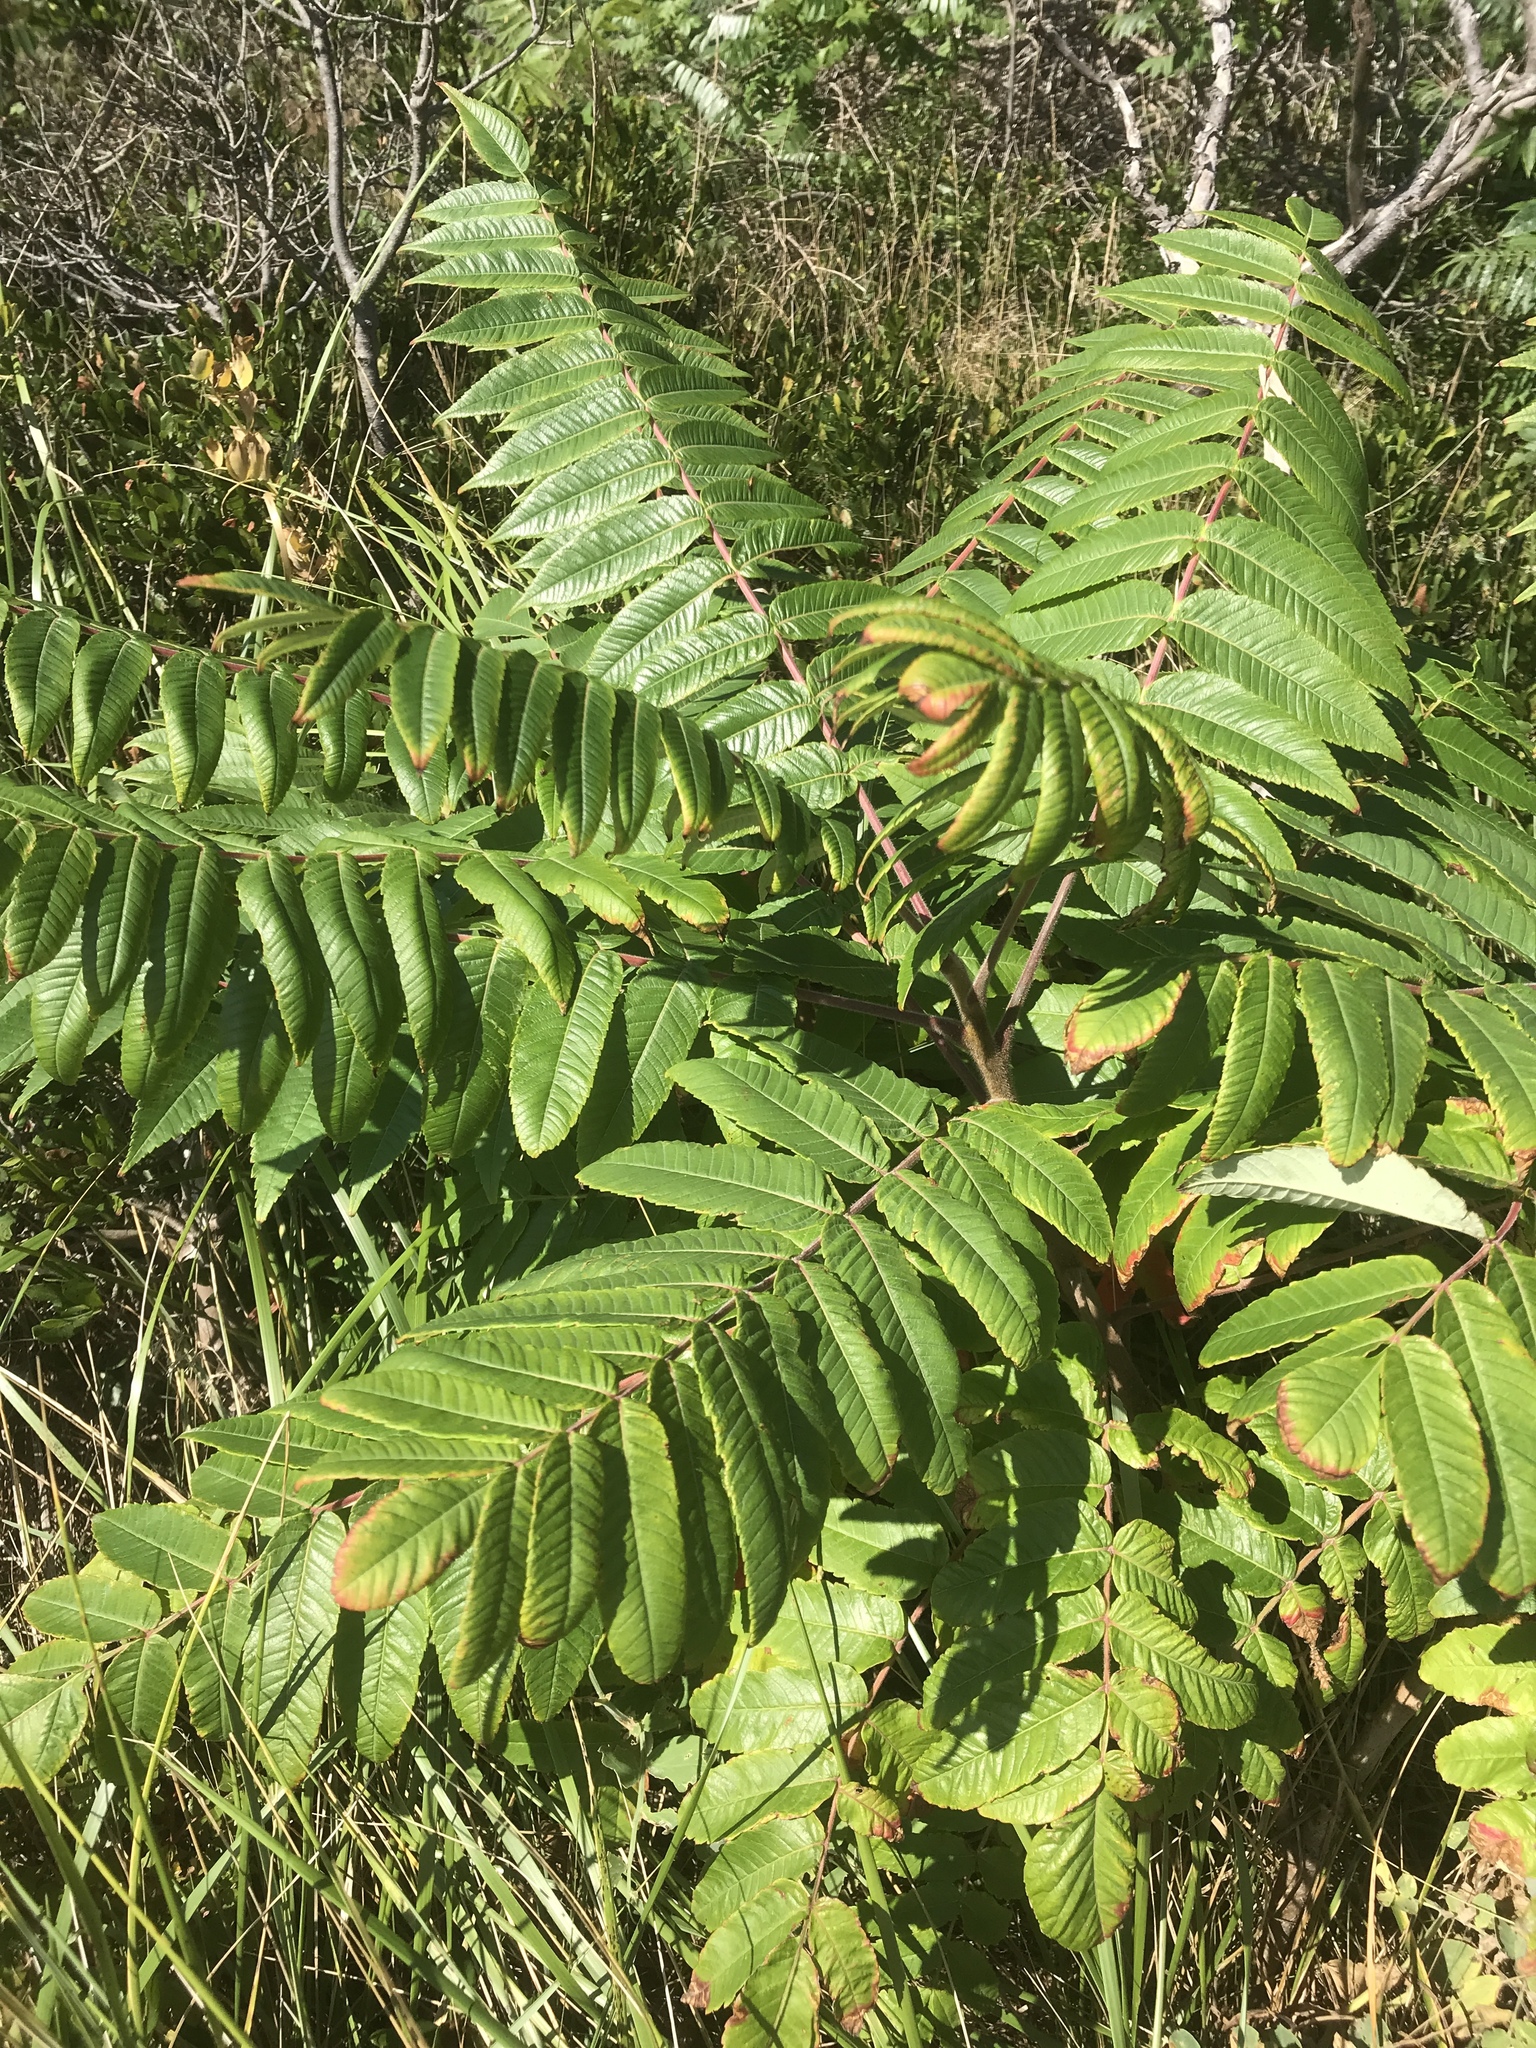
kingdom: Plantae
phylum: Tracheophyta
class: Magnoliopsida
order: Sapindales
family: Anacardiaceae
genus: Rhus
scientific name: Rhus typhina
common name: Staghorn sumac
